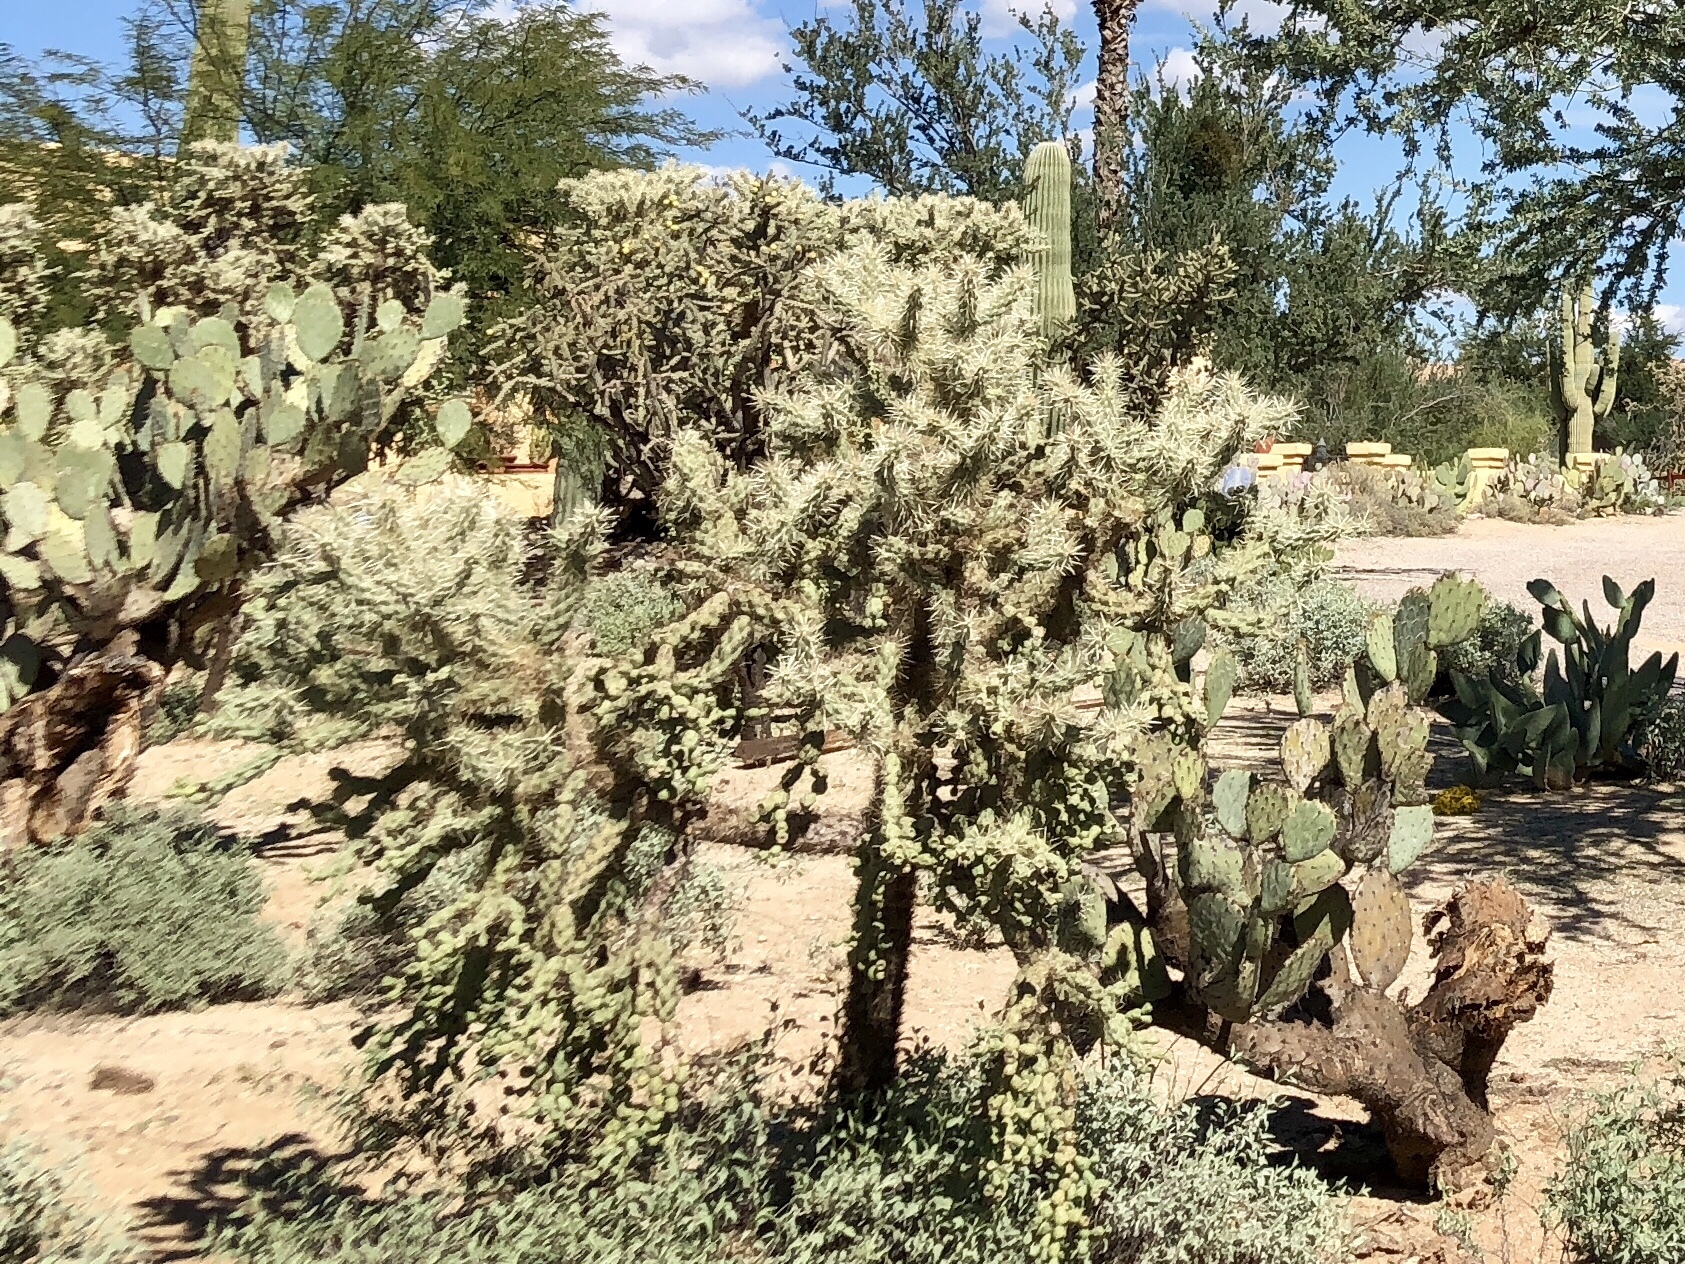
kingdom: Plantae
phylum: Tracheophyta
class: Magnoliopsida
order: Caryophyllales
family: Cactaceae
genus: Cylindropuntia
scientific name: Cylindropuntia fulgida
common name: Jumping cholla
